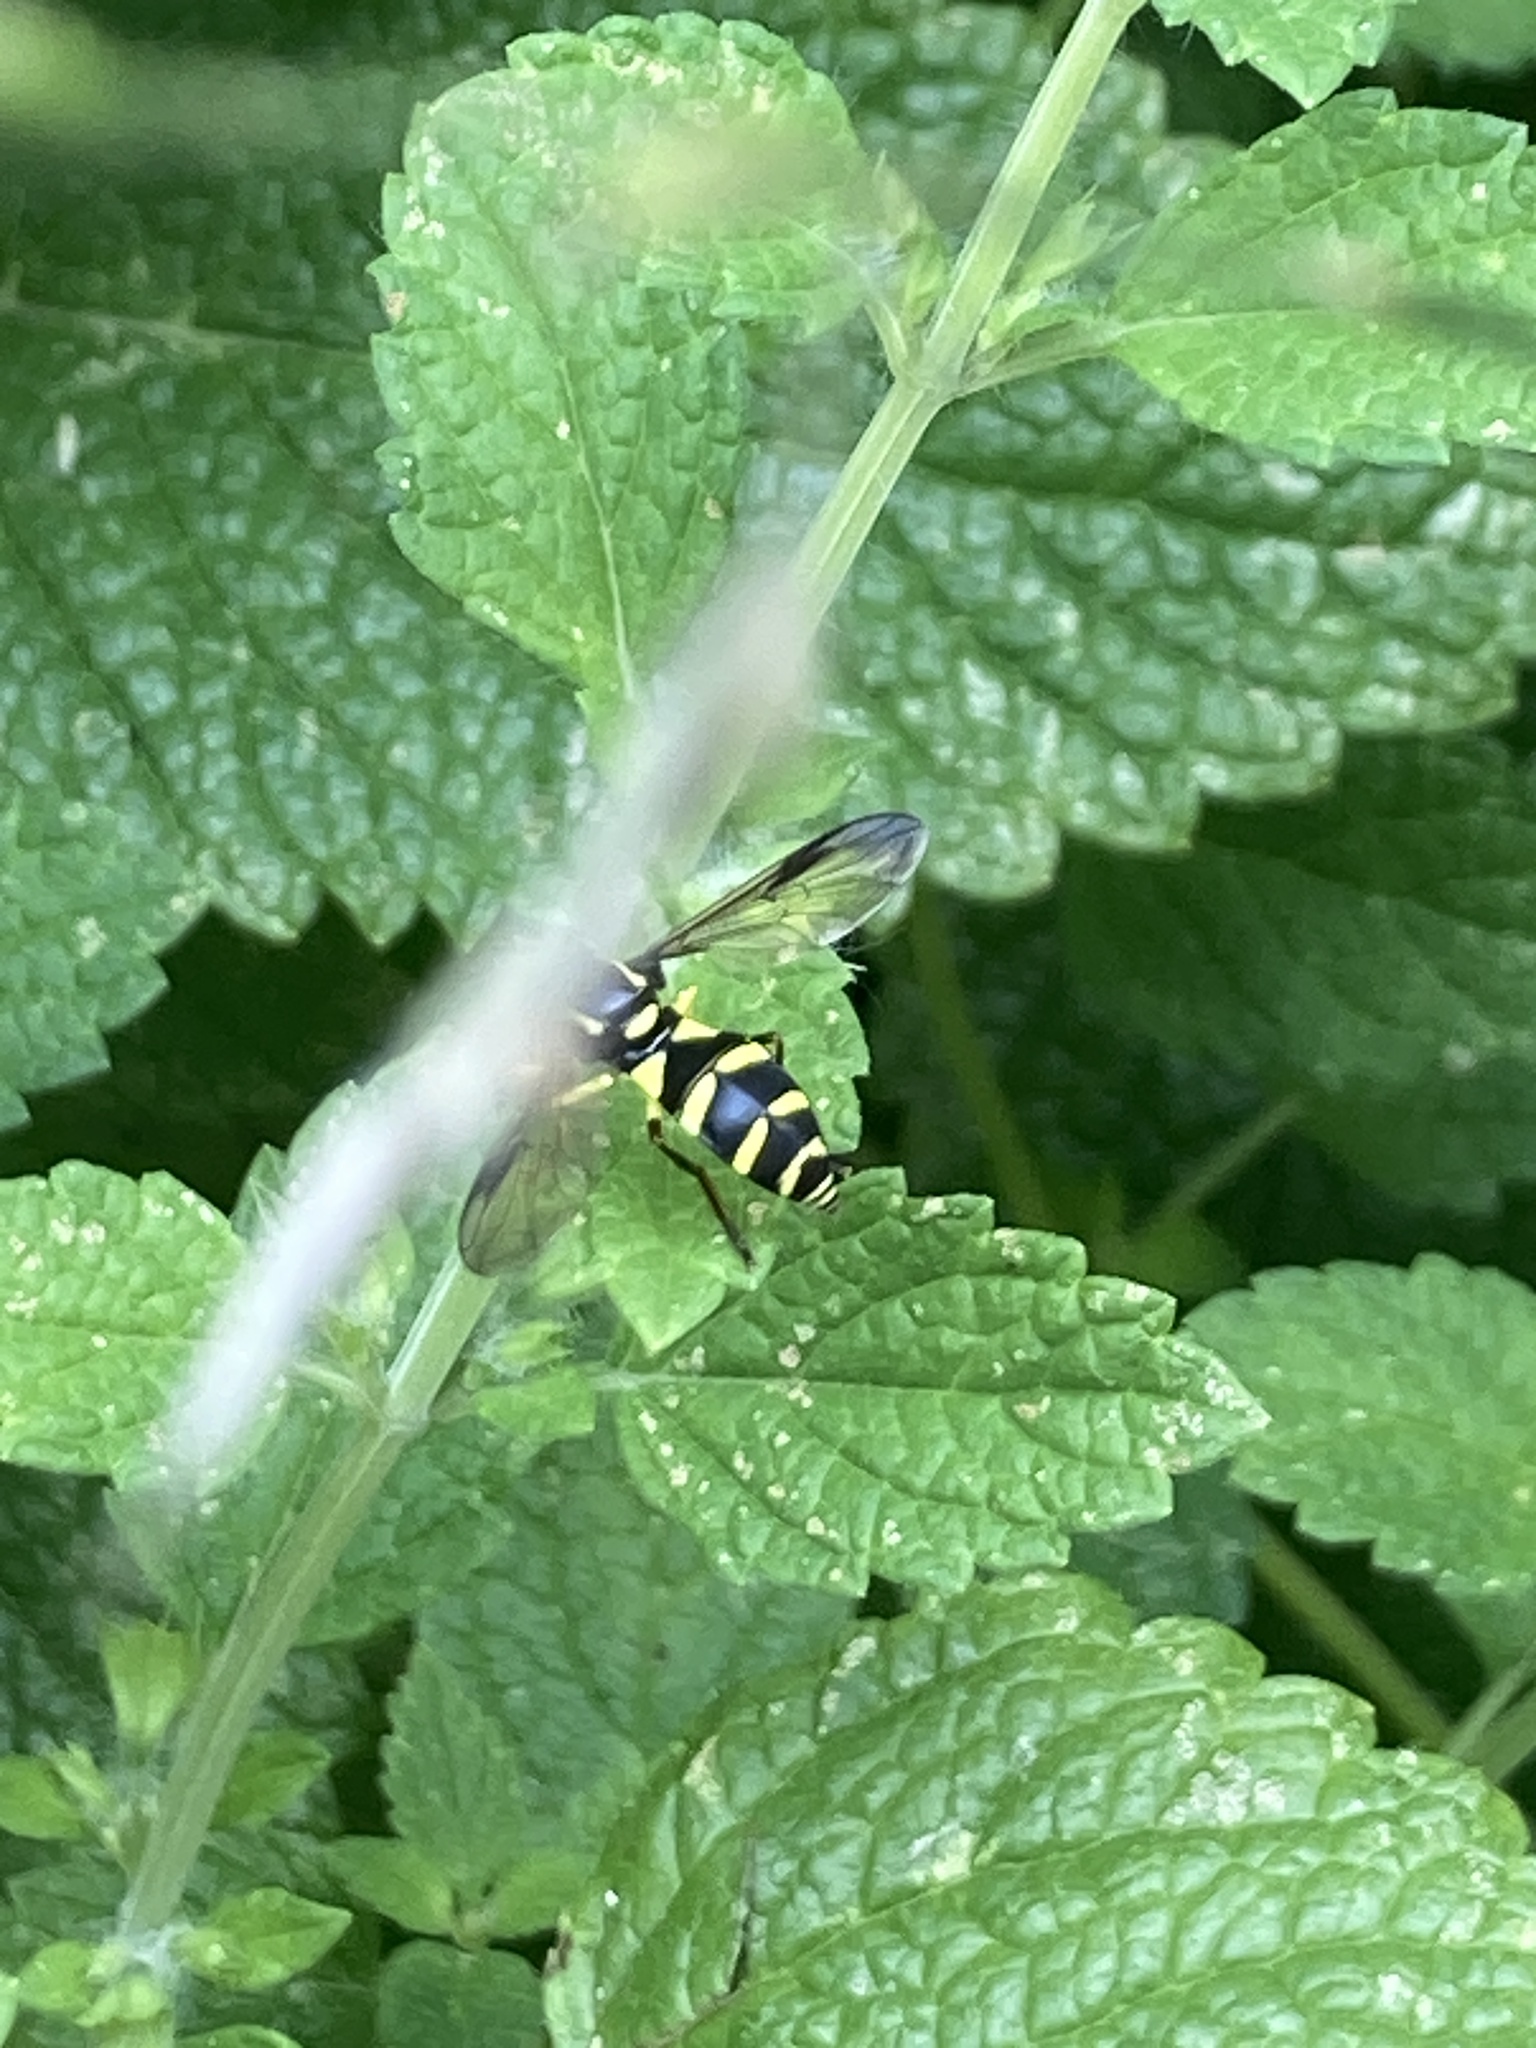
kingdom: Animalia
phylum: Arthropoda
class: Insecta
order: Diptera
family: Syrphidae
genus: Philhelius
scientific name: Philhelius pedissequum
